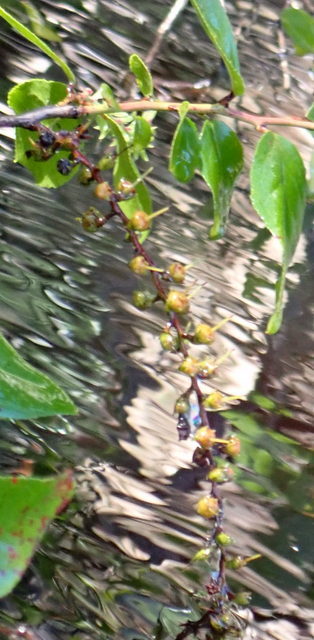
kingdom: Plantae
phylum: Tracheophyta
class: Magnoliopsida
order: Ericales
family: Ericaceae
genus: Eubotrys
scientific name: Eubotrys racemosa
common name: Fetterbush
